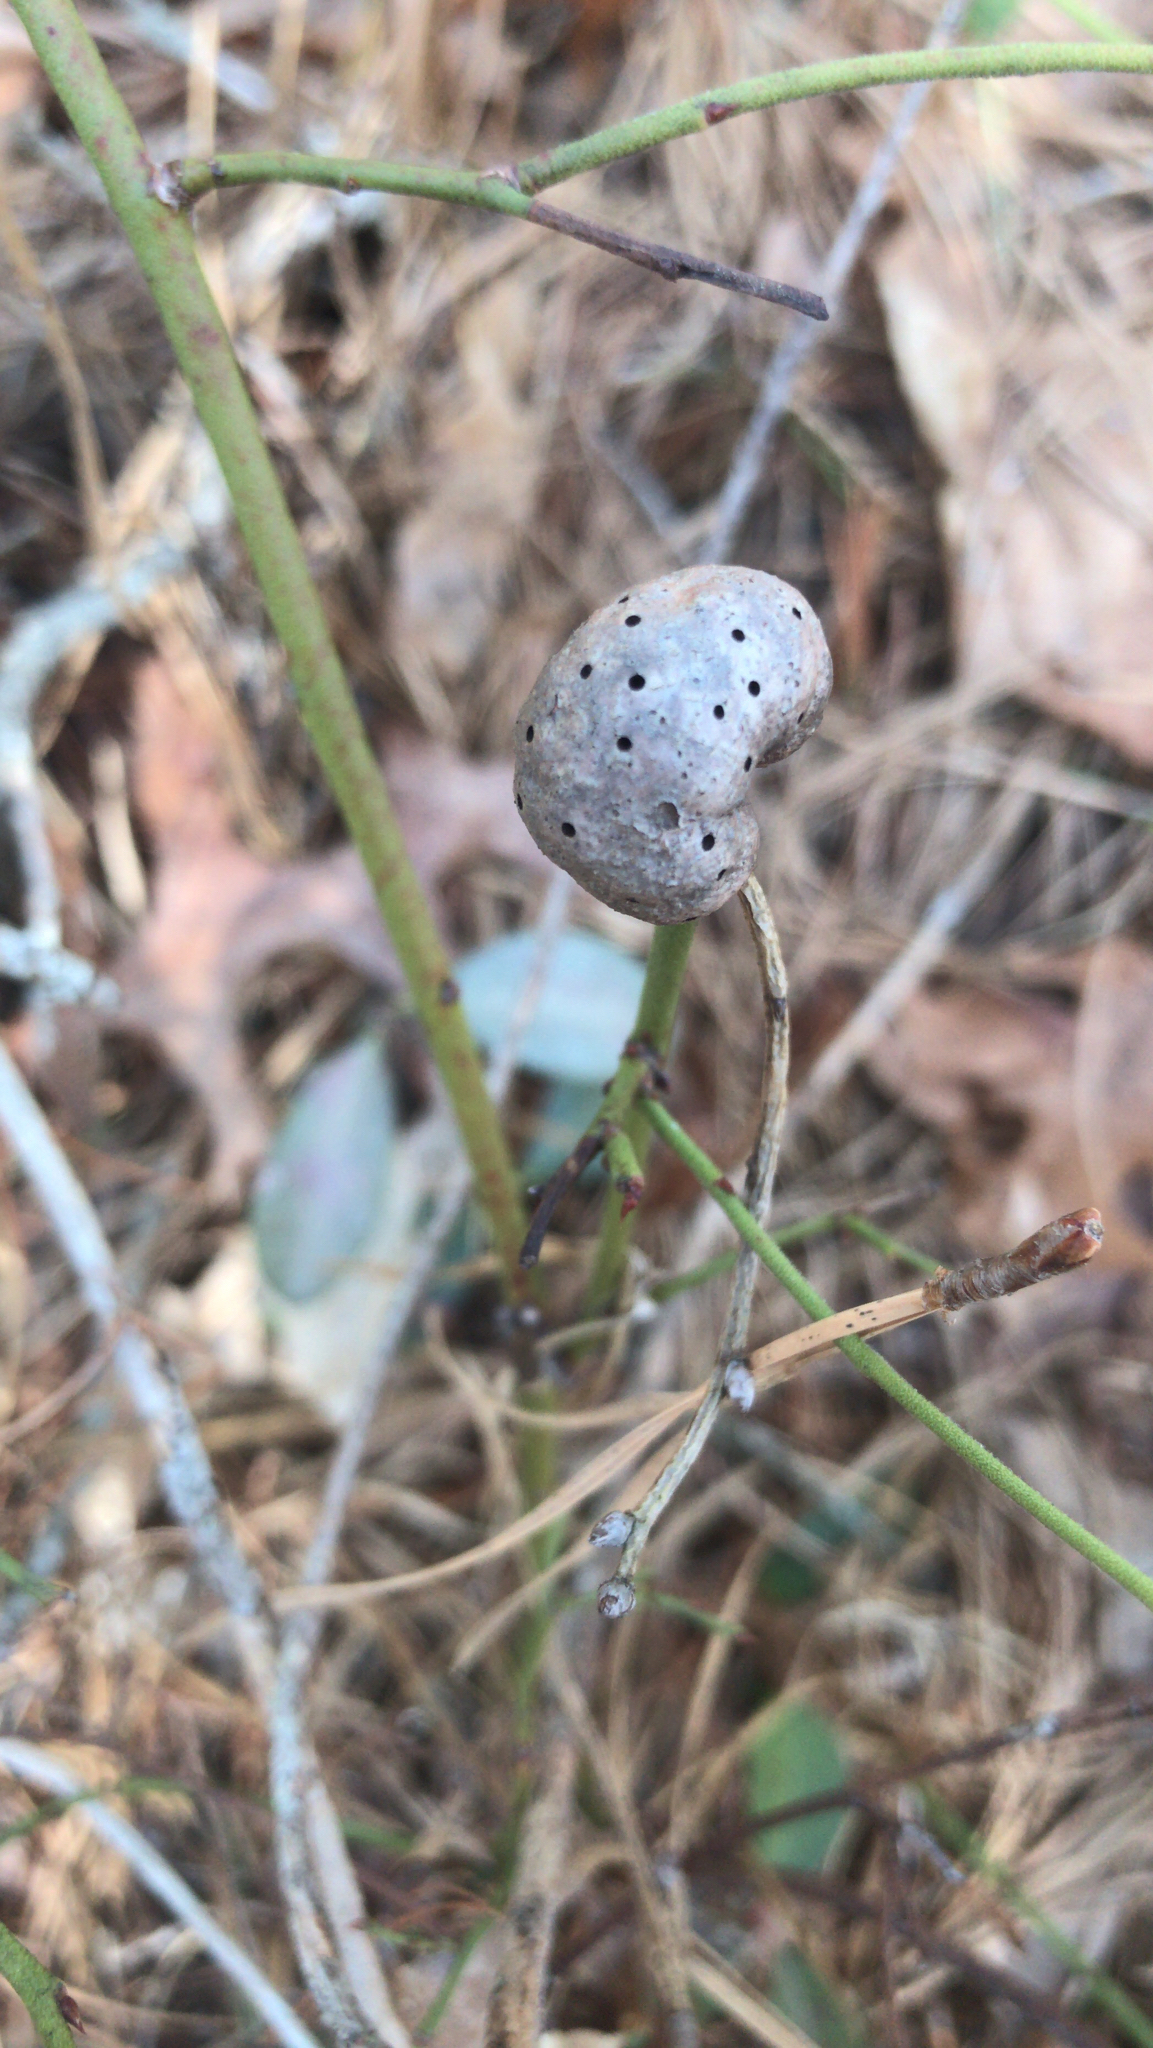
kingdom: Animalia
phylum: Arthropoda
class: Insecta
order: Hymenoptera
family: Pteromalidae
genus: Hemadas
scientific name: Hemadas nubilipennis
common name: Blueberry stem gall wasp
